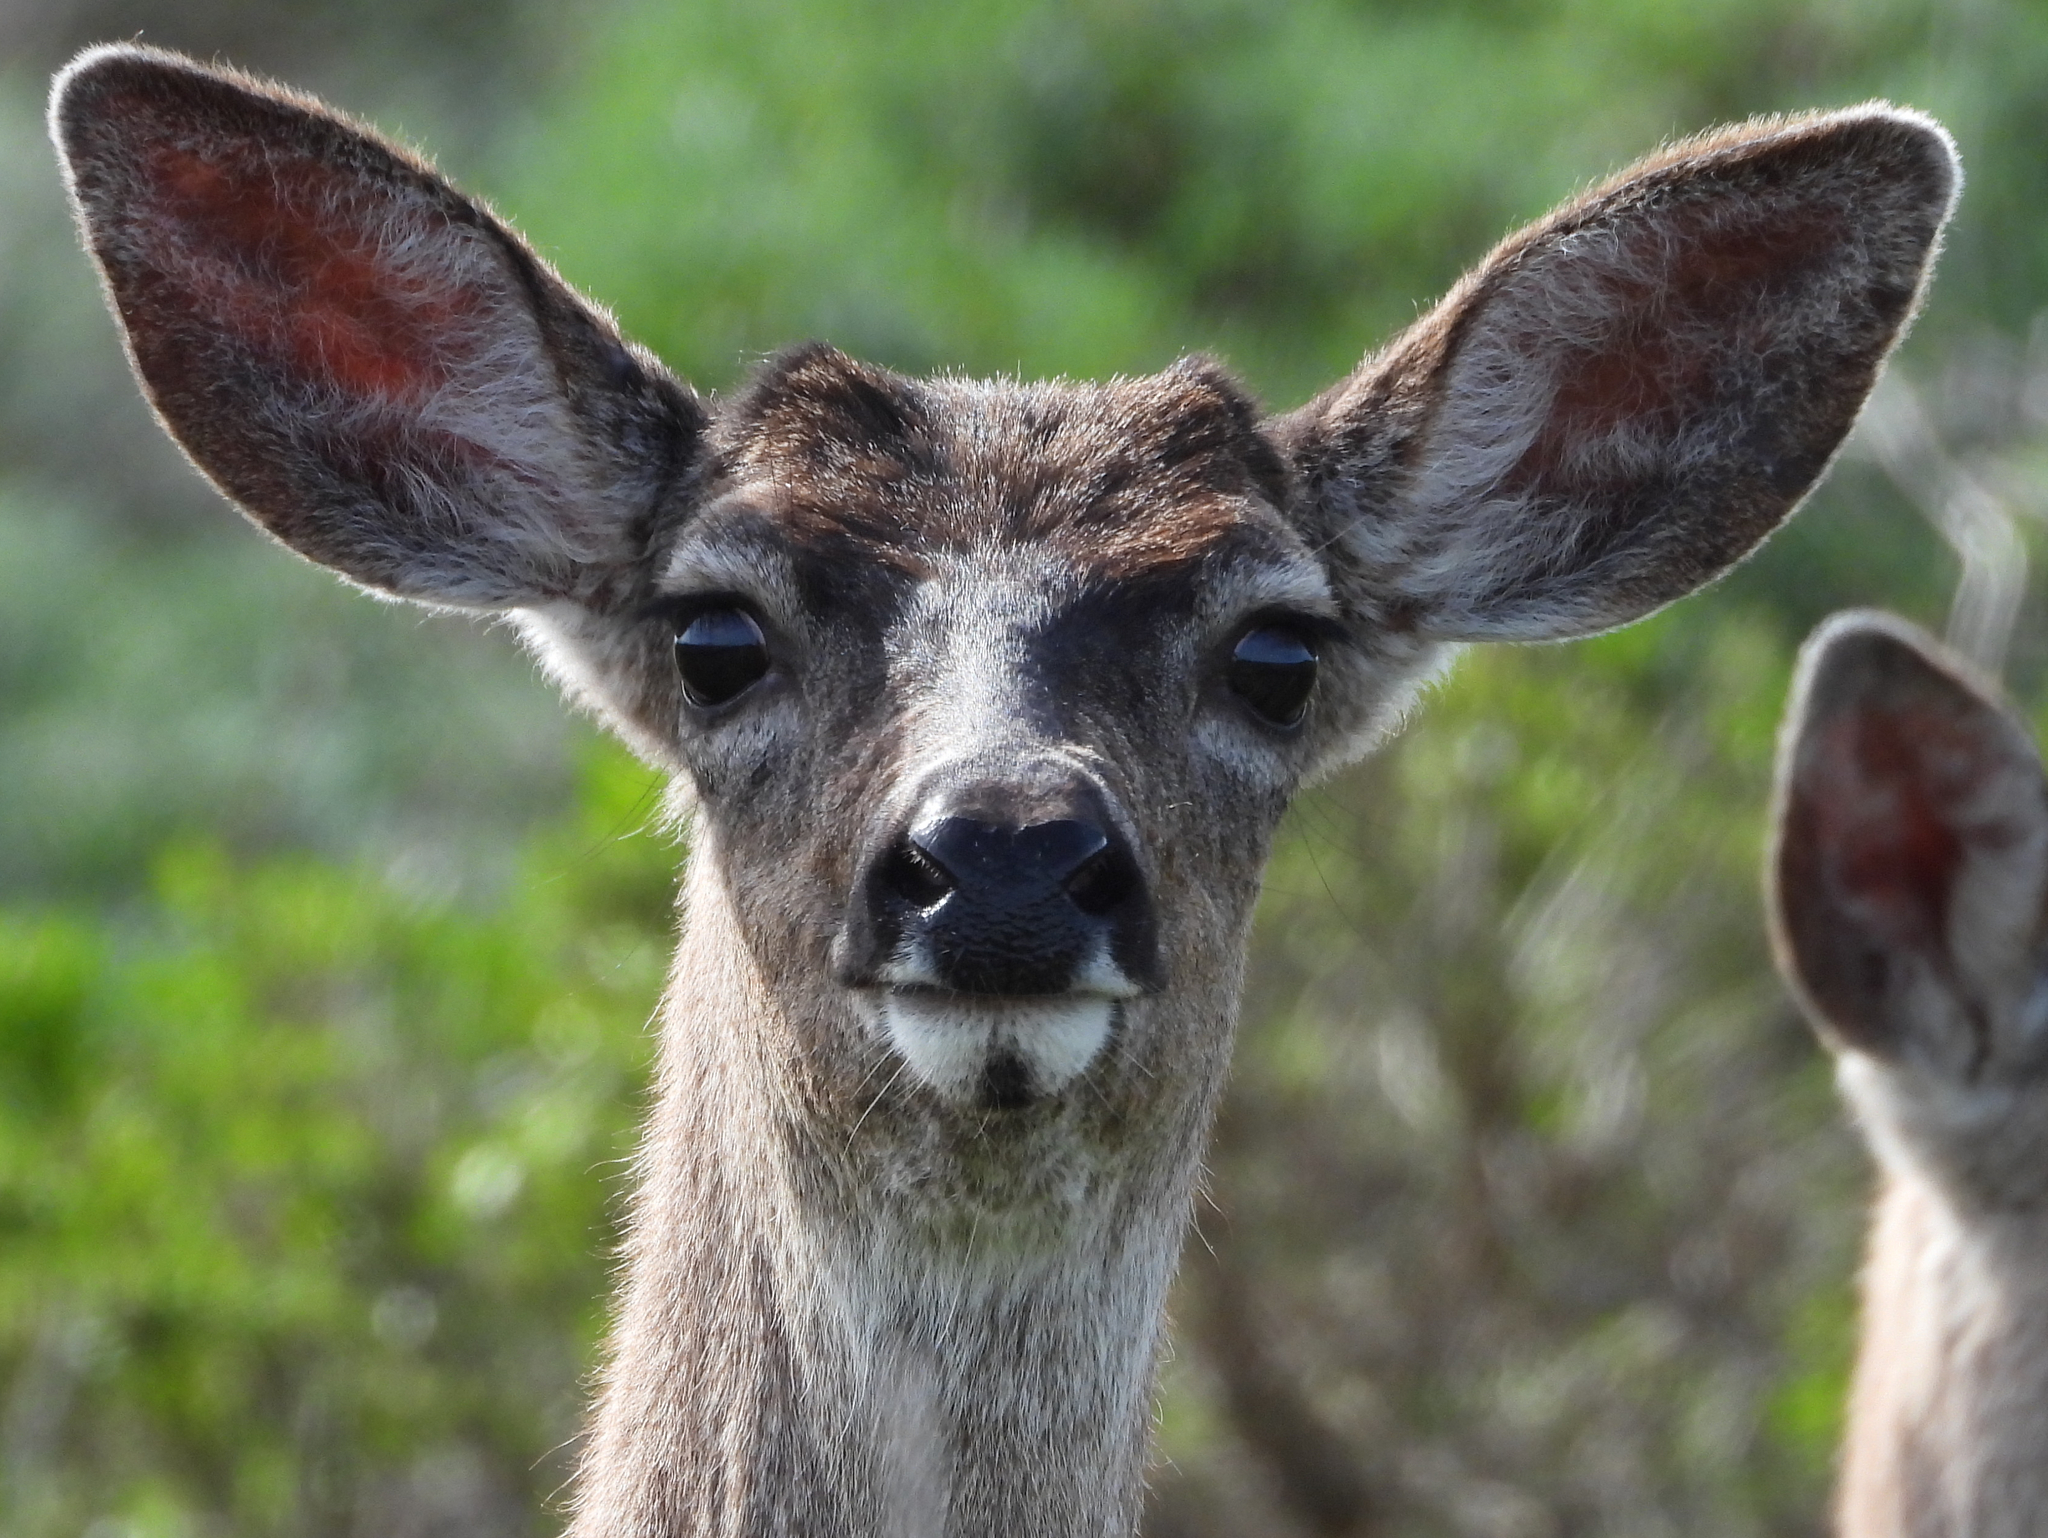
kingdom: Animalia
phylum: Chordata
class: Mammalia
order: Artiodactyla
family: Cervidae
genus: Odocoileus
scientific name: Odocoileus hemionus
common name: Mule deer
